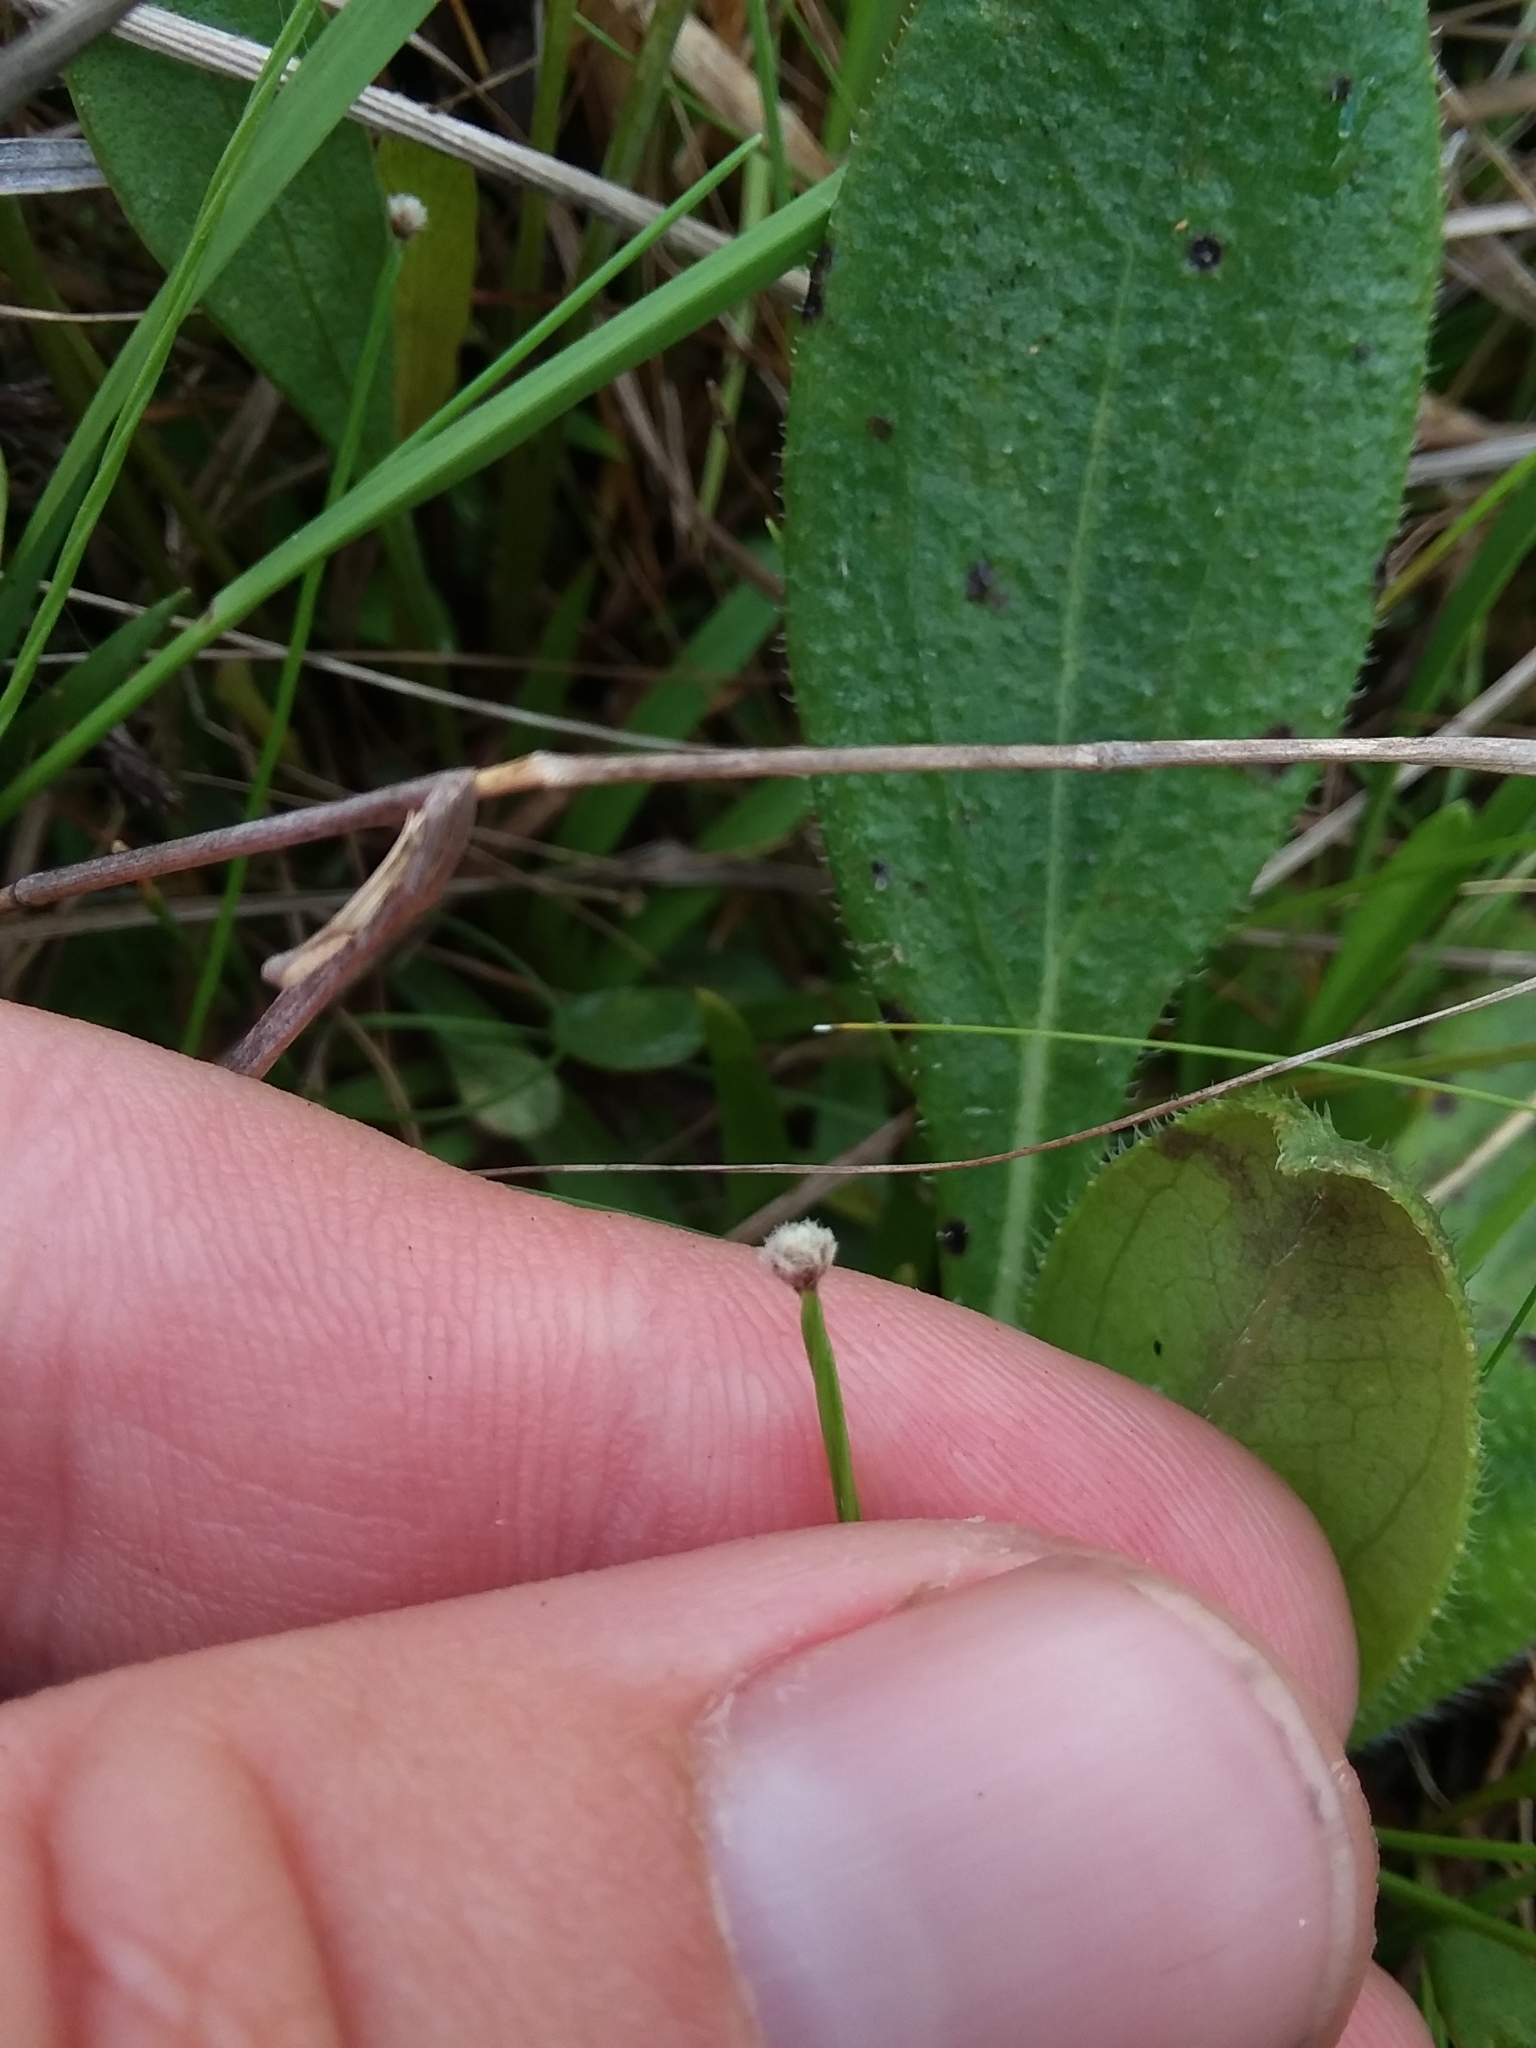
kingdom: Plantae
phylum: Tracheophyta
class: Liliopsida
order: Poales
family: Eriocaulaceae
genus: Paepalanthus
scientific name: Paepalanthus digynus
